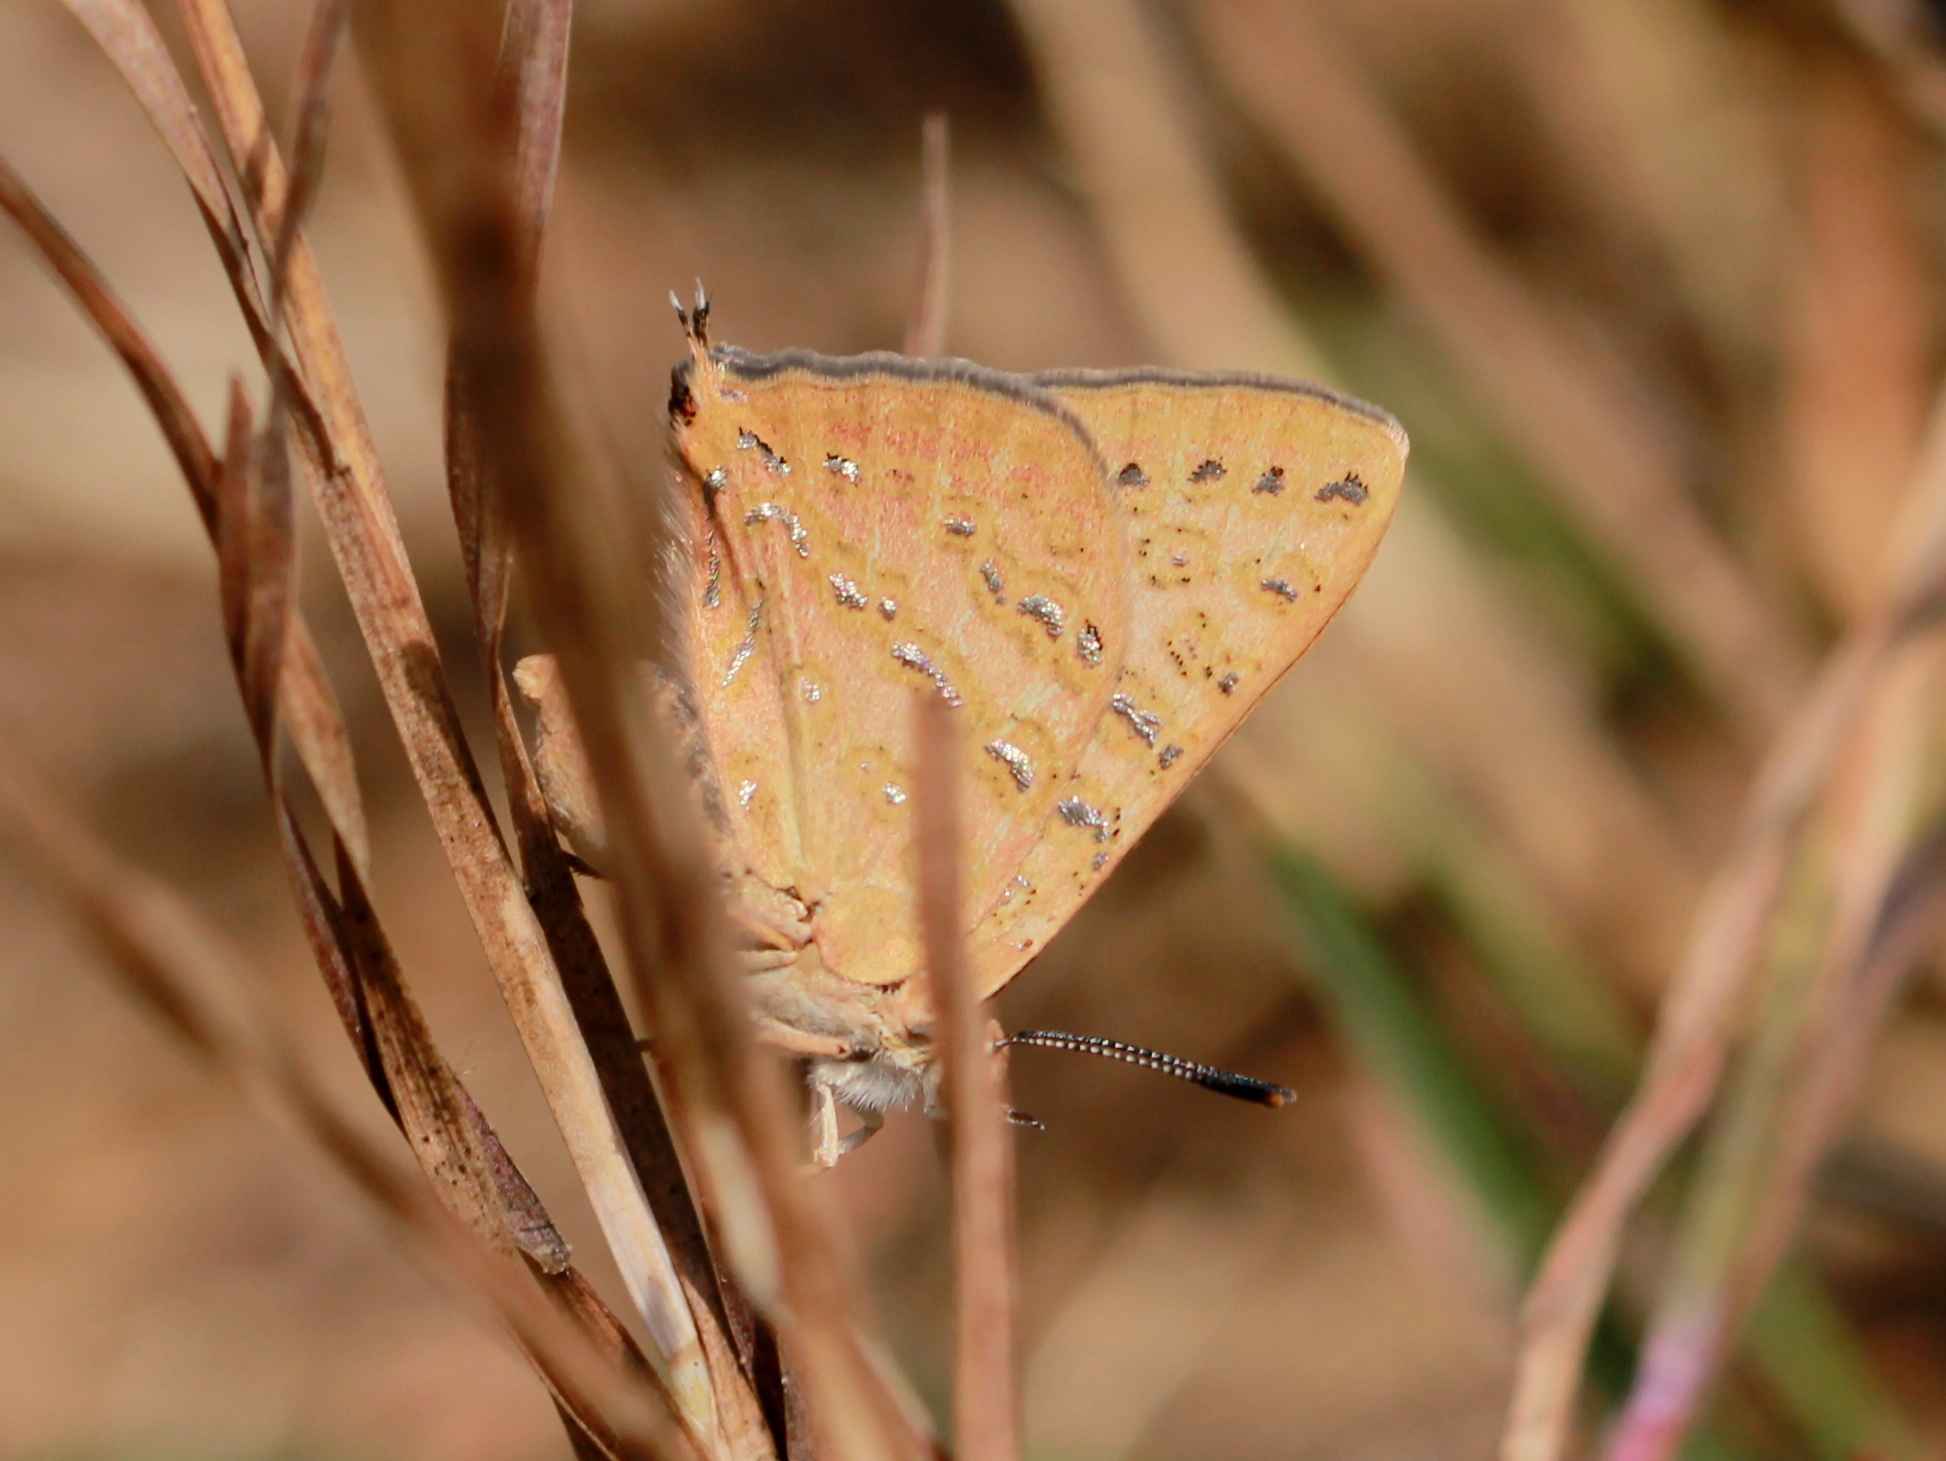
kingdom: Animalia
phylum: Arthropoda
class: Insecta
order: Lepidoptera
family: Lycaenidae
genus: Aphnaeus
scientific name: Aphnaeus lilacinus
